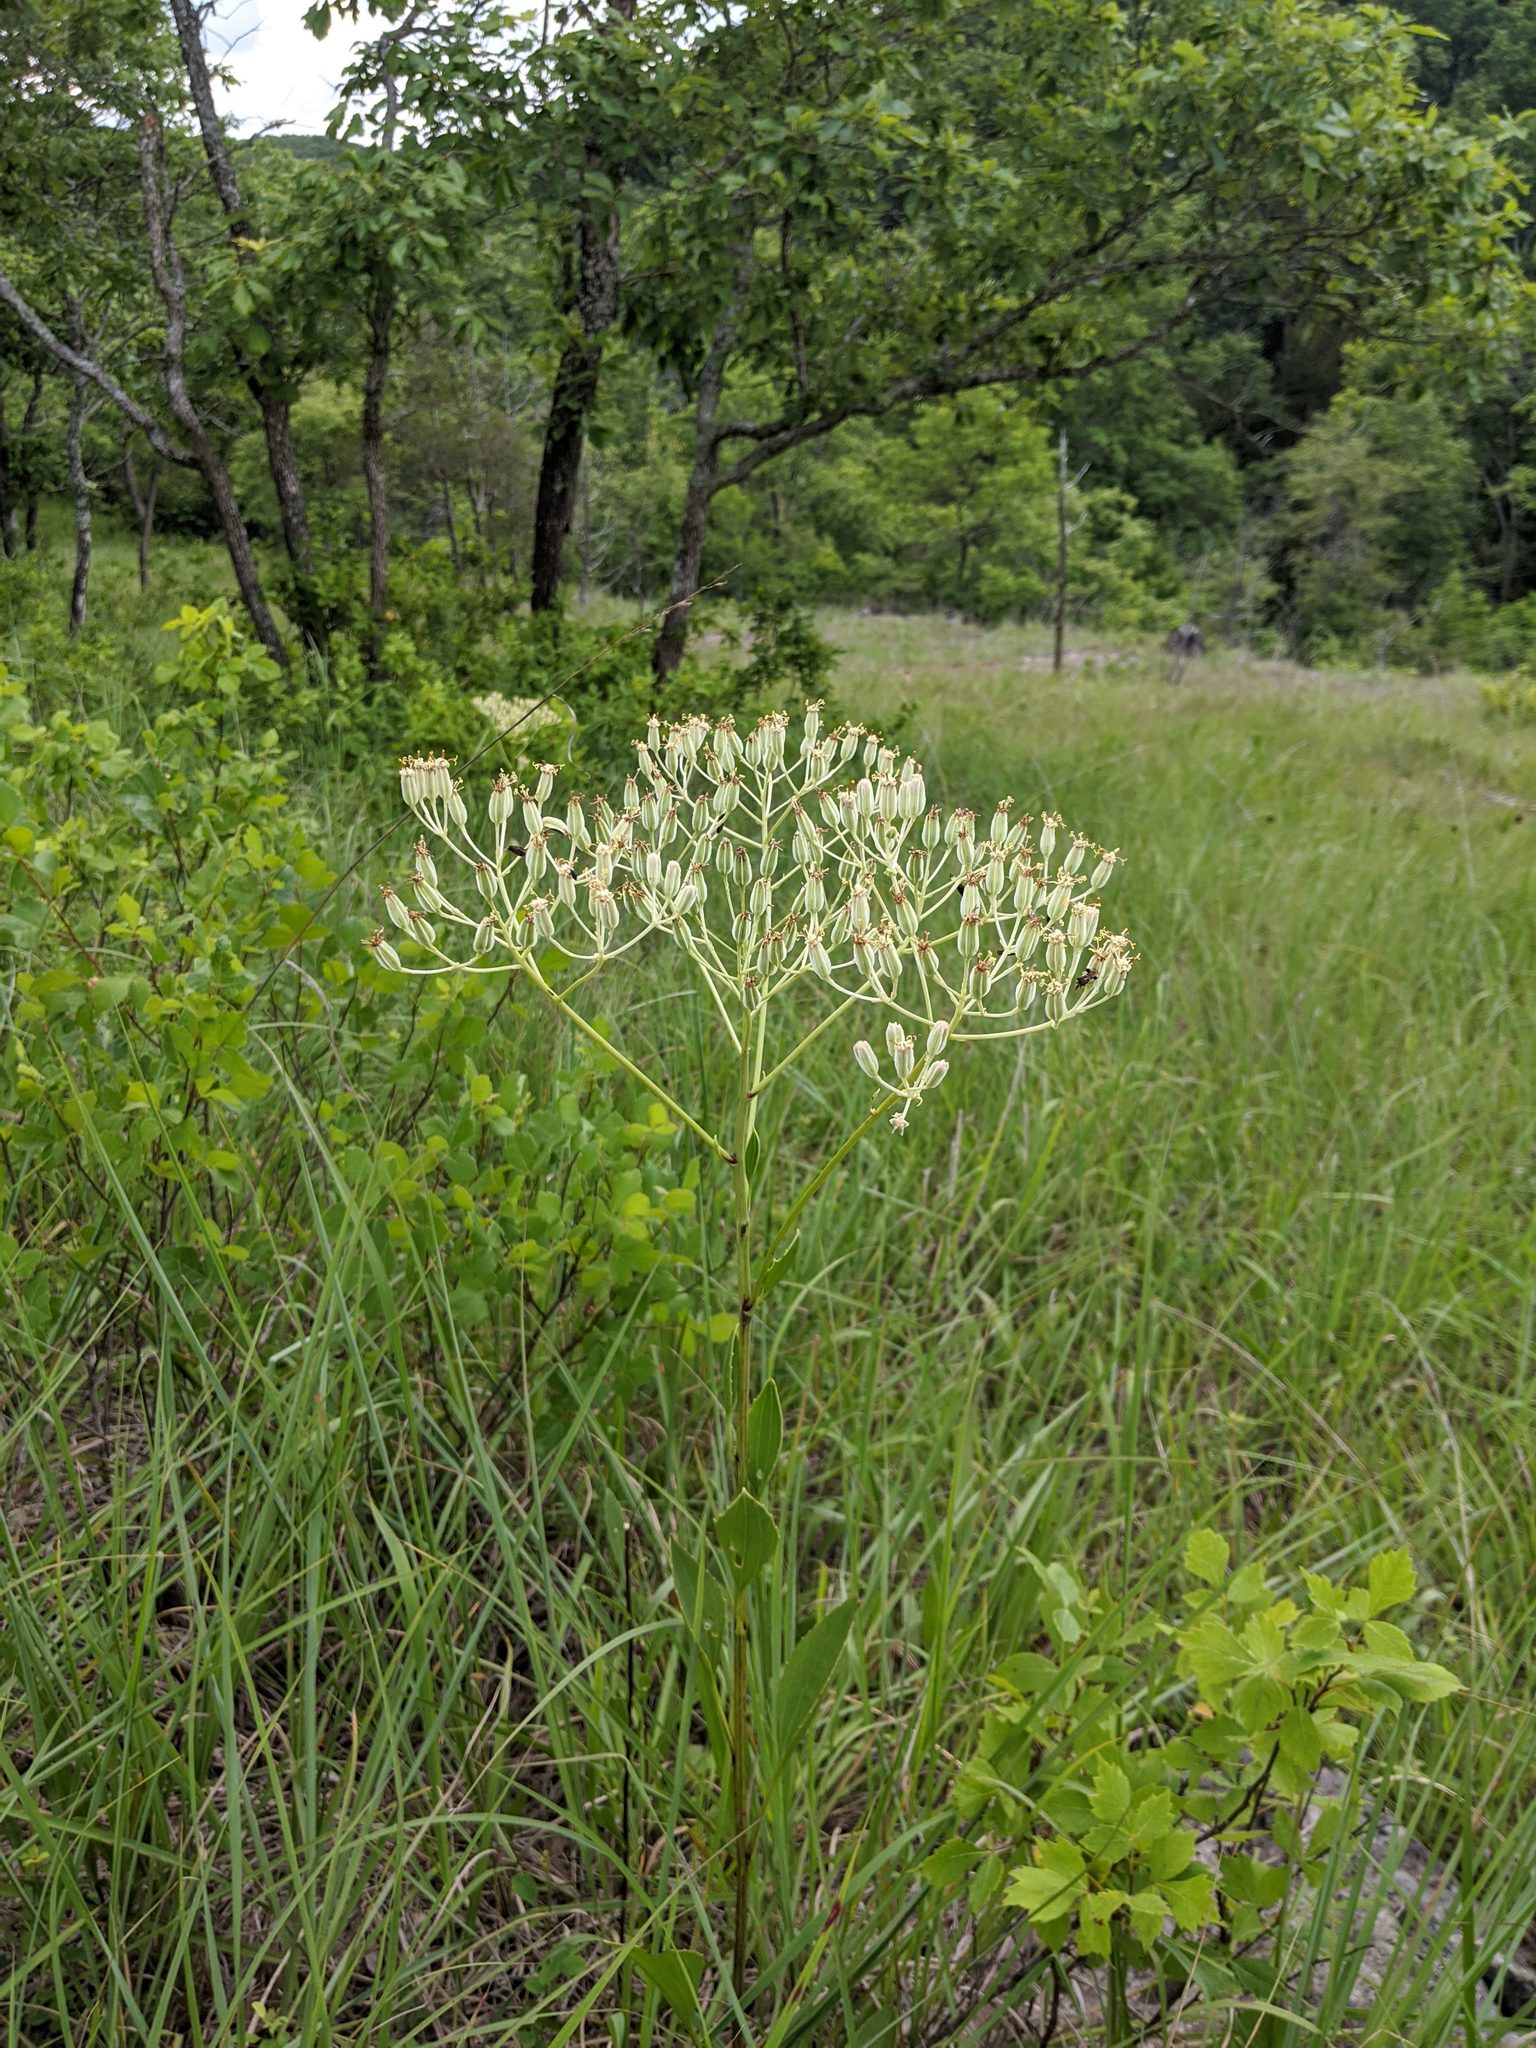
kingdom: Plantae
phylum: Tracheophyta
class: Magnoliopsida
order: Asterales
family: Asteraceae
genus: Arnoglossum
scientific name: Arnoglossum plantagineum
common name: Groove-stemmed indian-plantain
